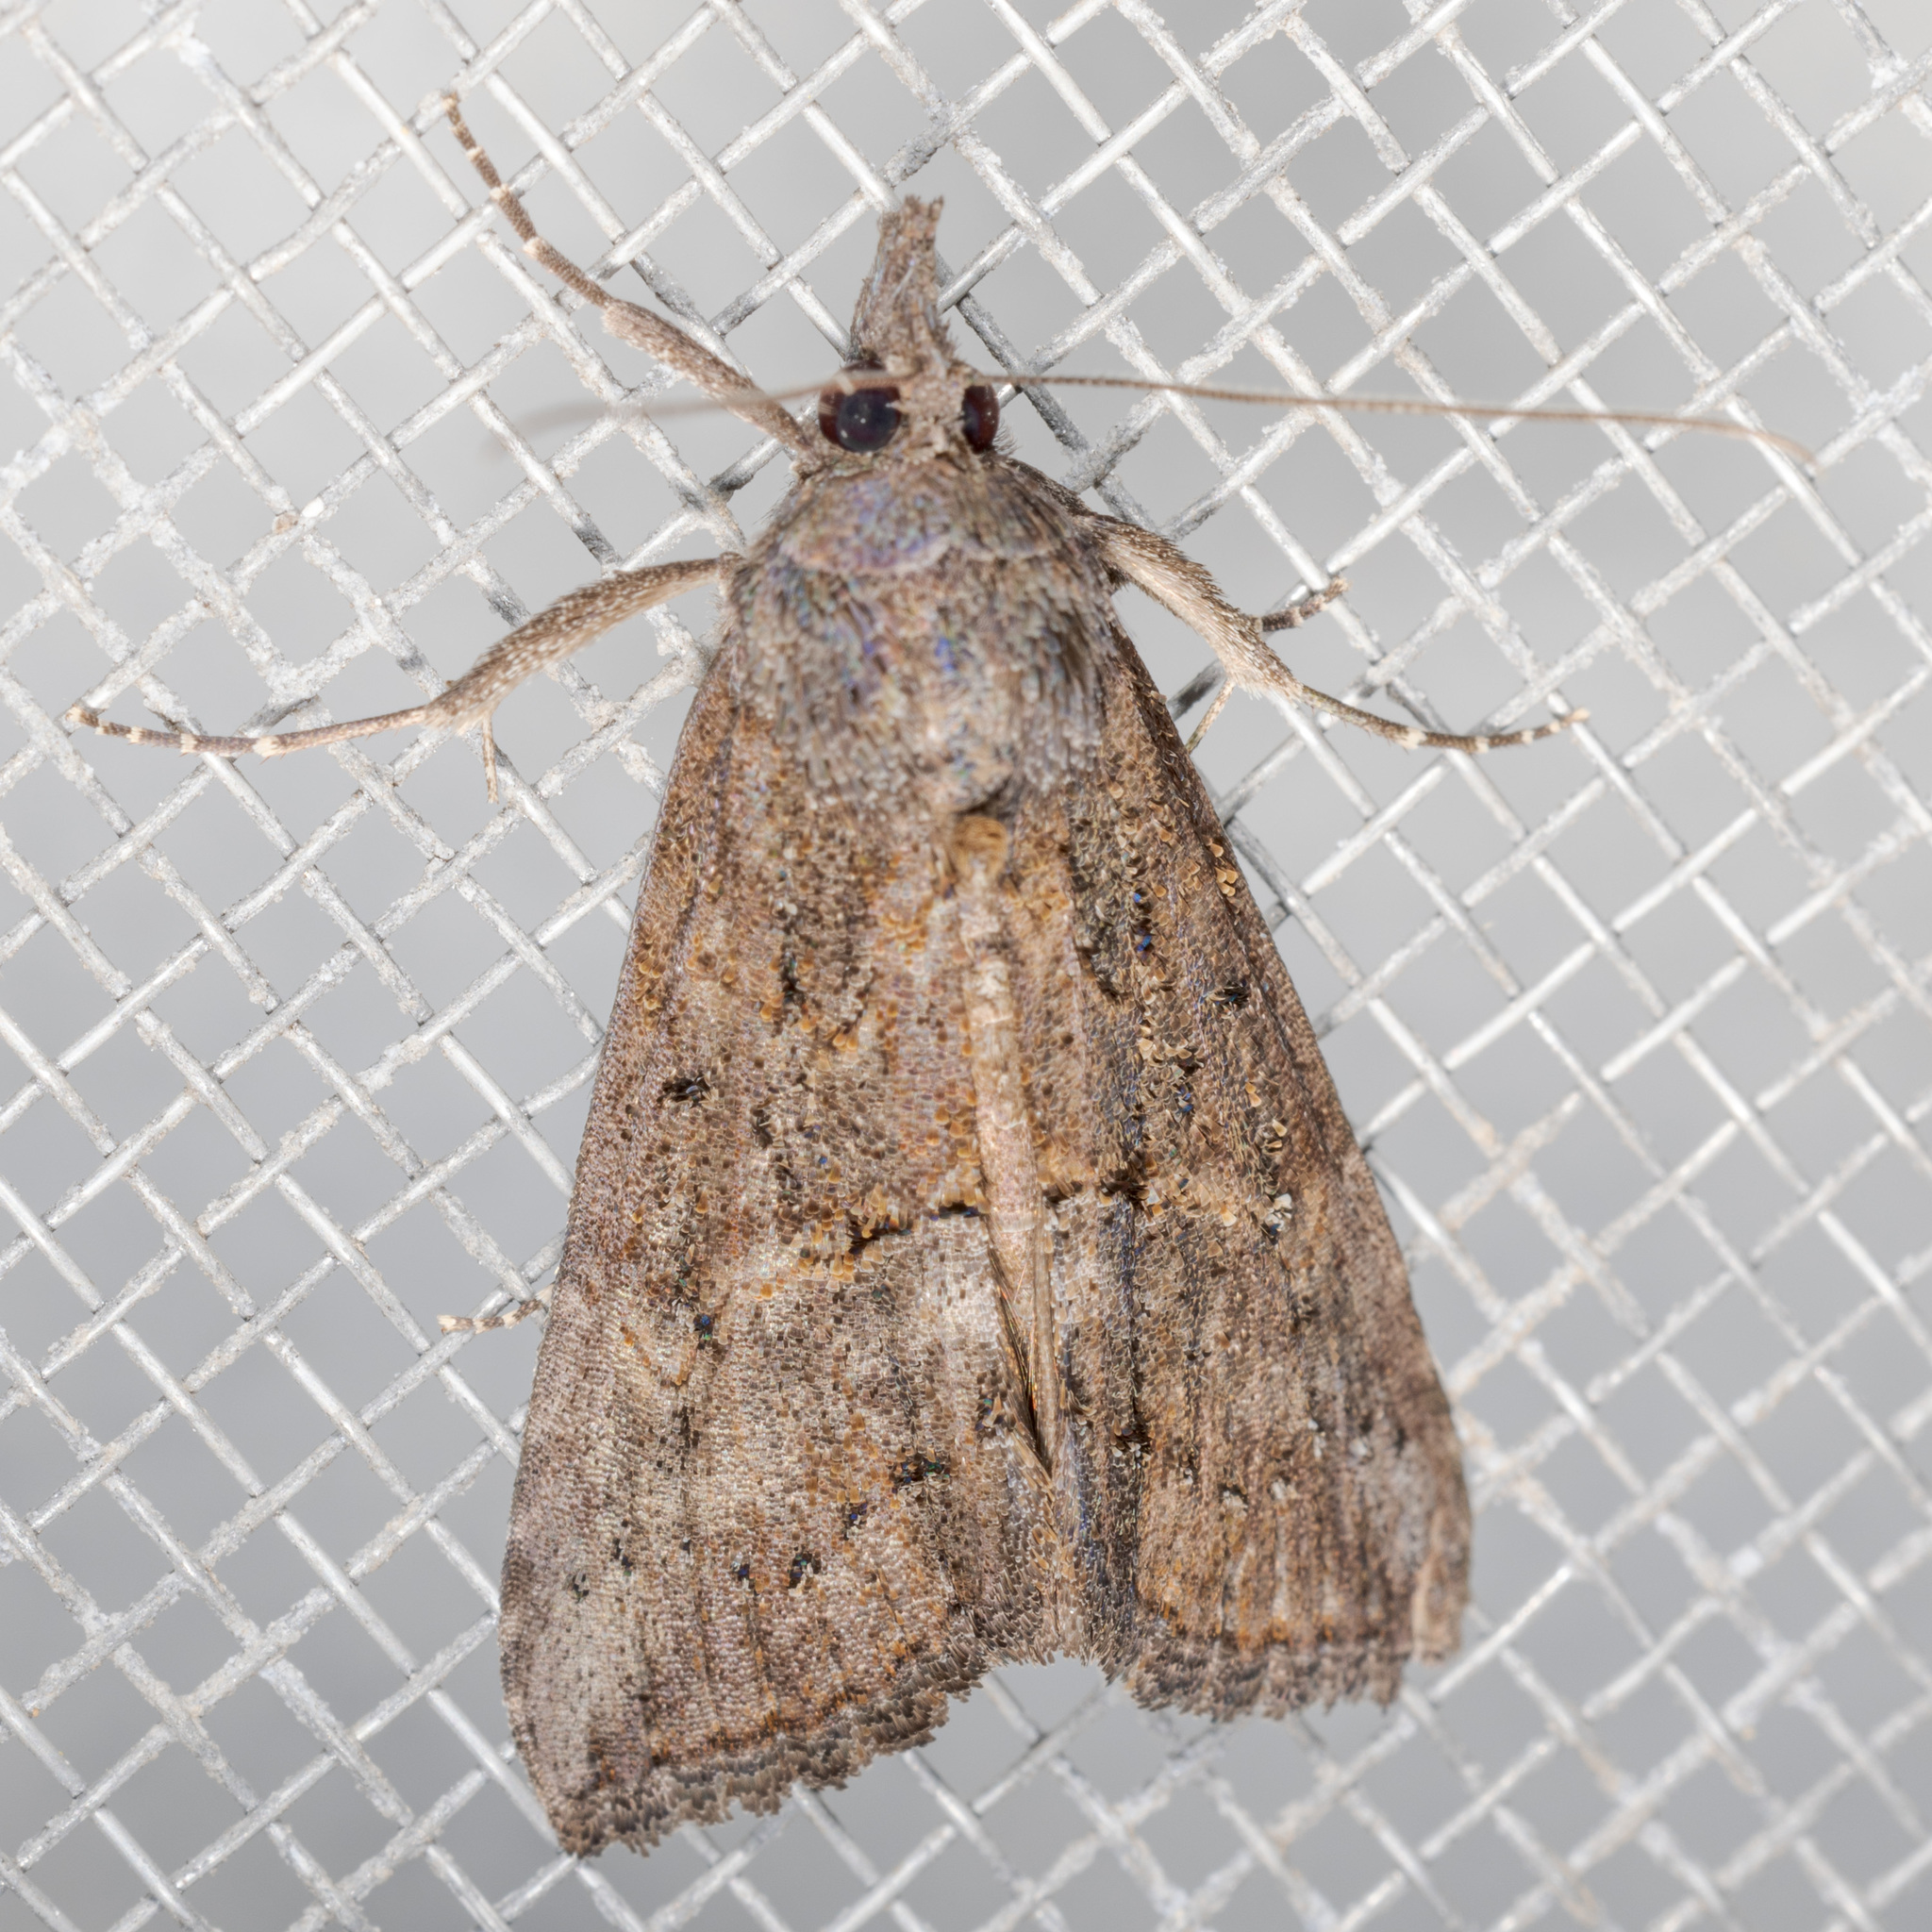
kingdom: Animalia
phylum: Arthropoda
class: Insecta
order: Lepidoptera
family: Erebidae
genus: Hypena
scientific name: Hypena scabra
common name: Green cloverworm
